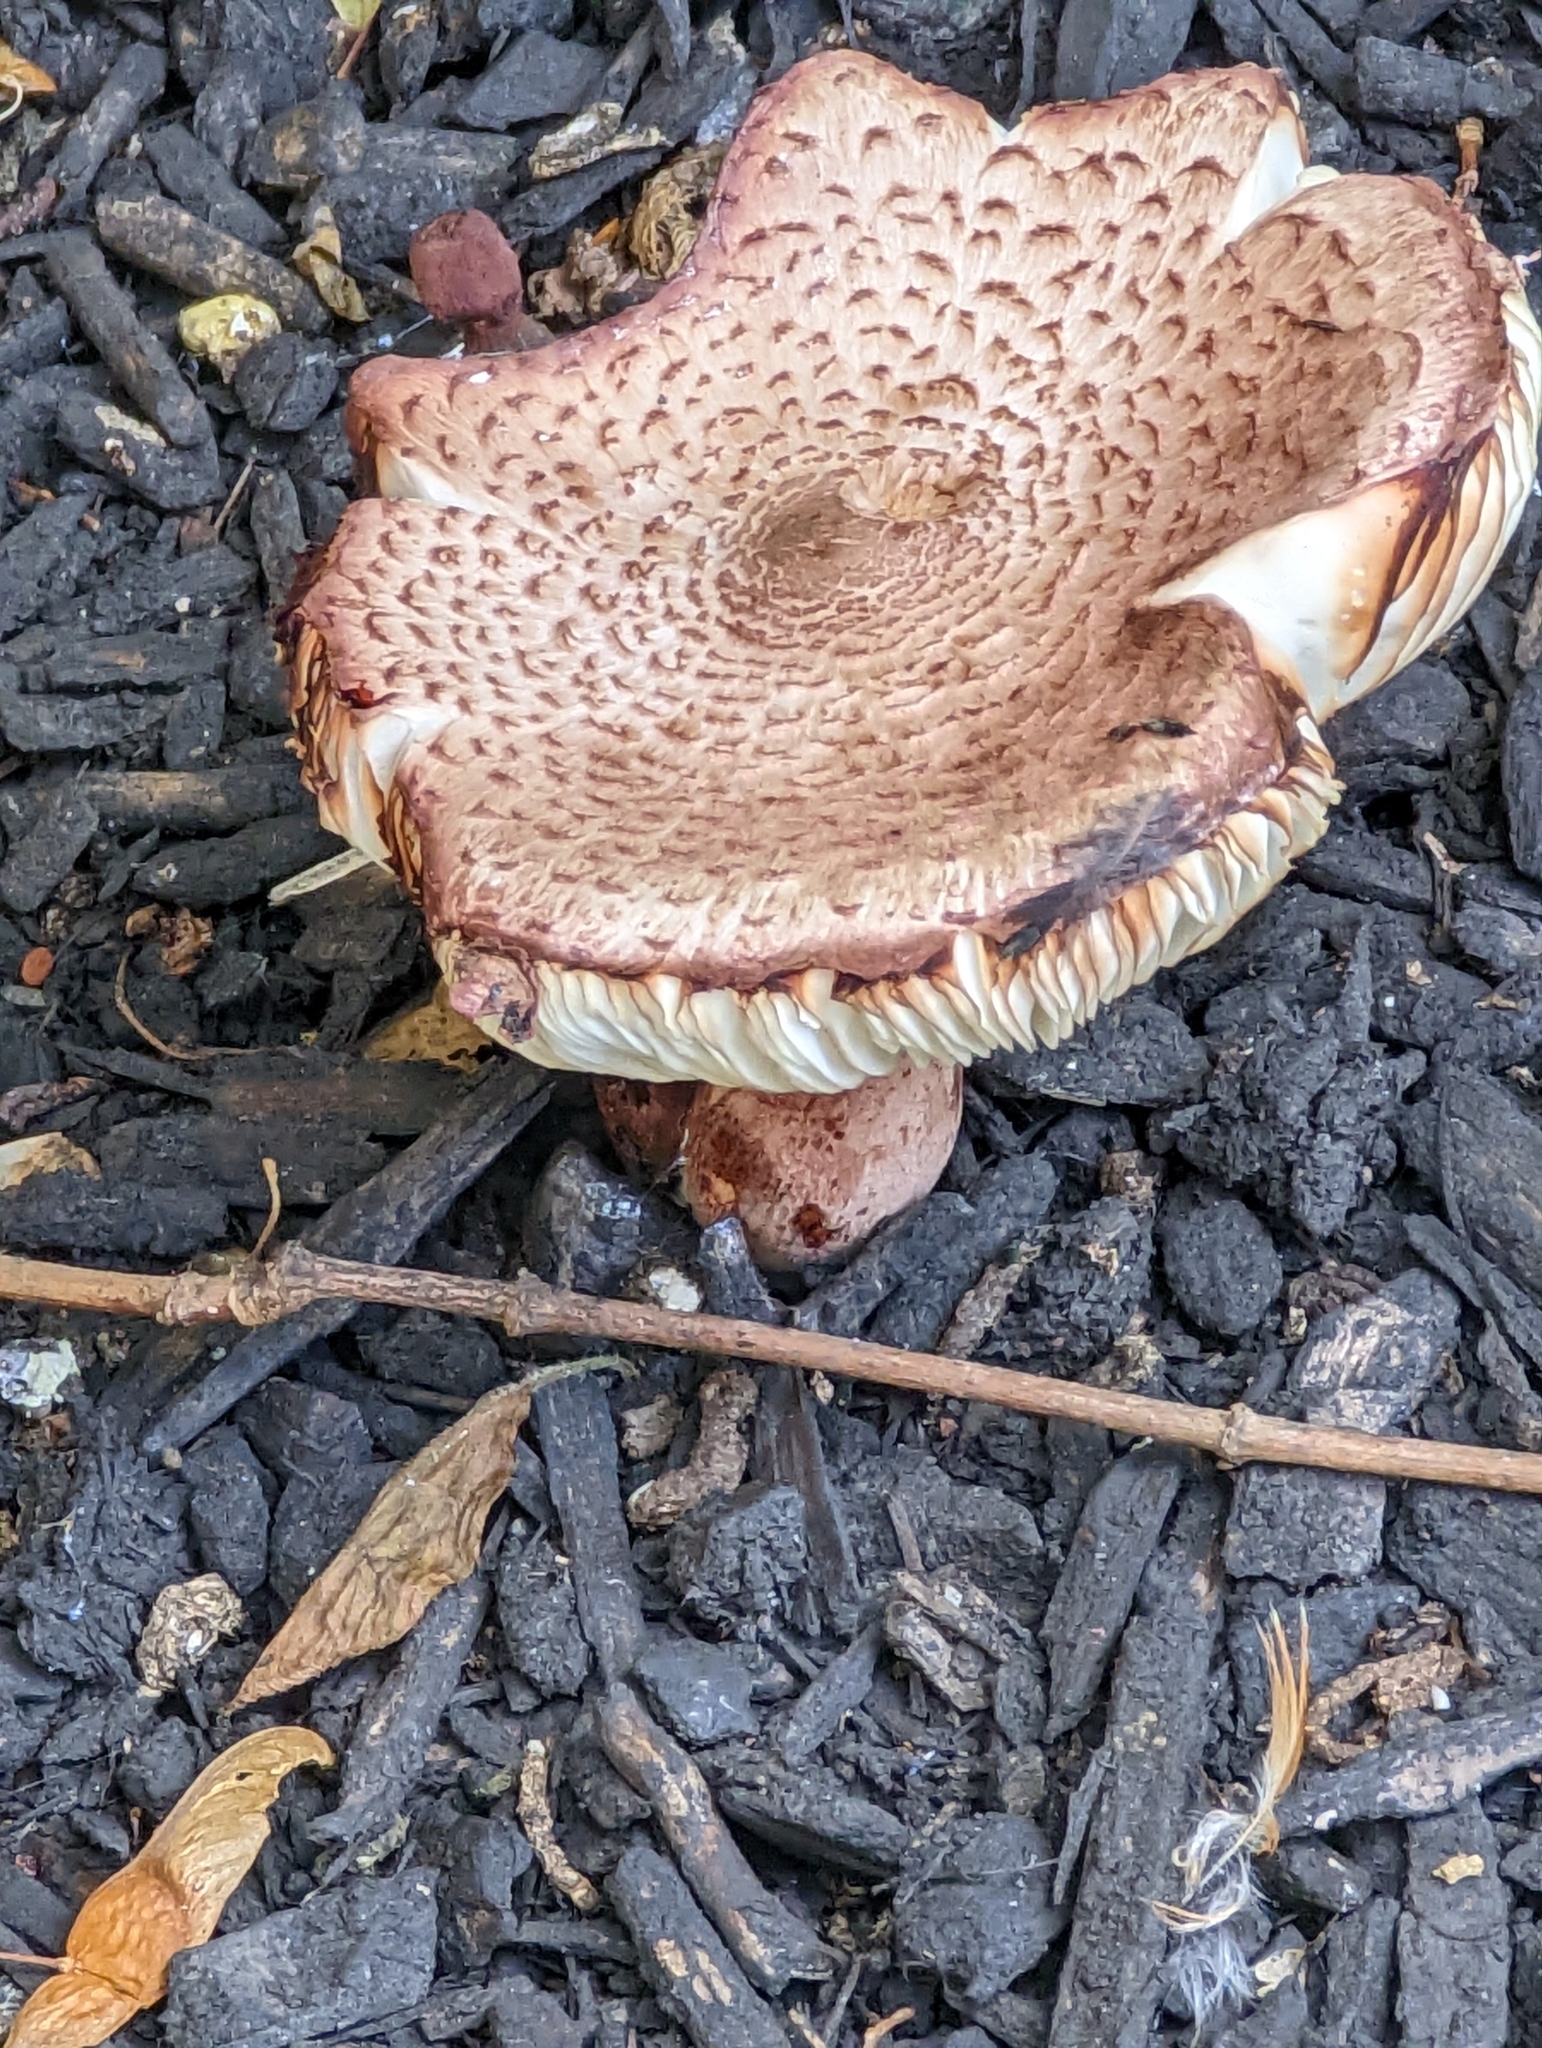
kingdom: Fungi
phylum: Basidiomycota
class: Agaricomycetes
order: Agaricales
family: Agaricaceae
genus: Leucoagaricus
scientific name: Leucoagaricus americanus
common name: Reddening lepiota
